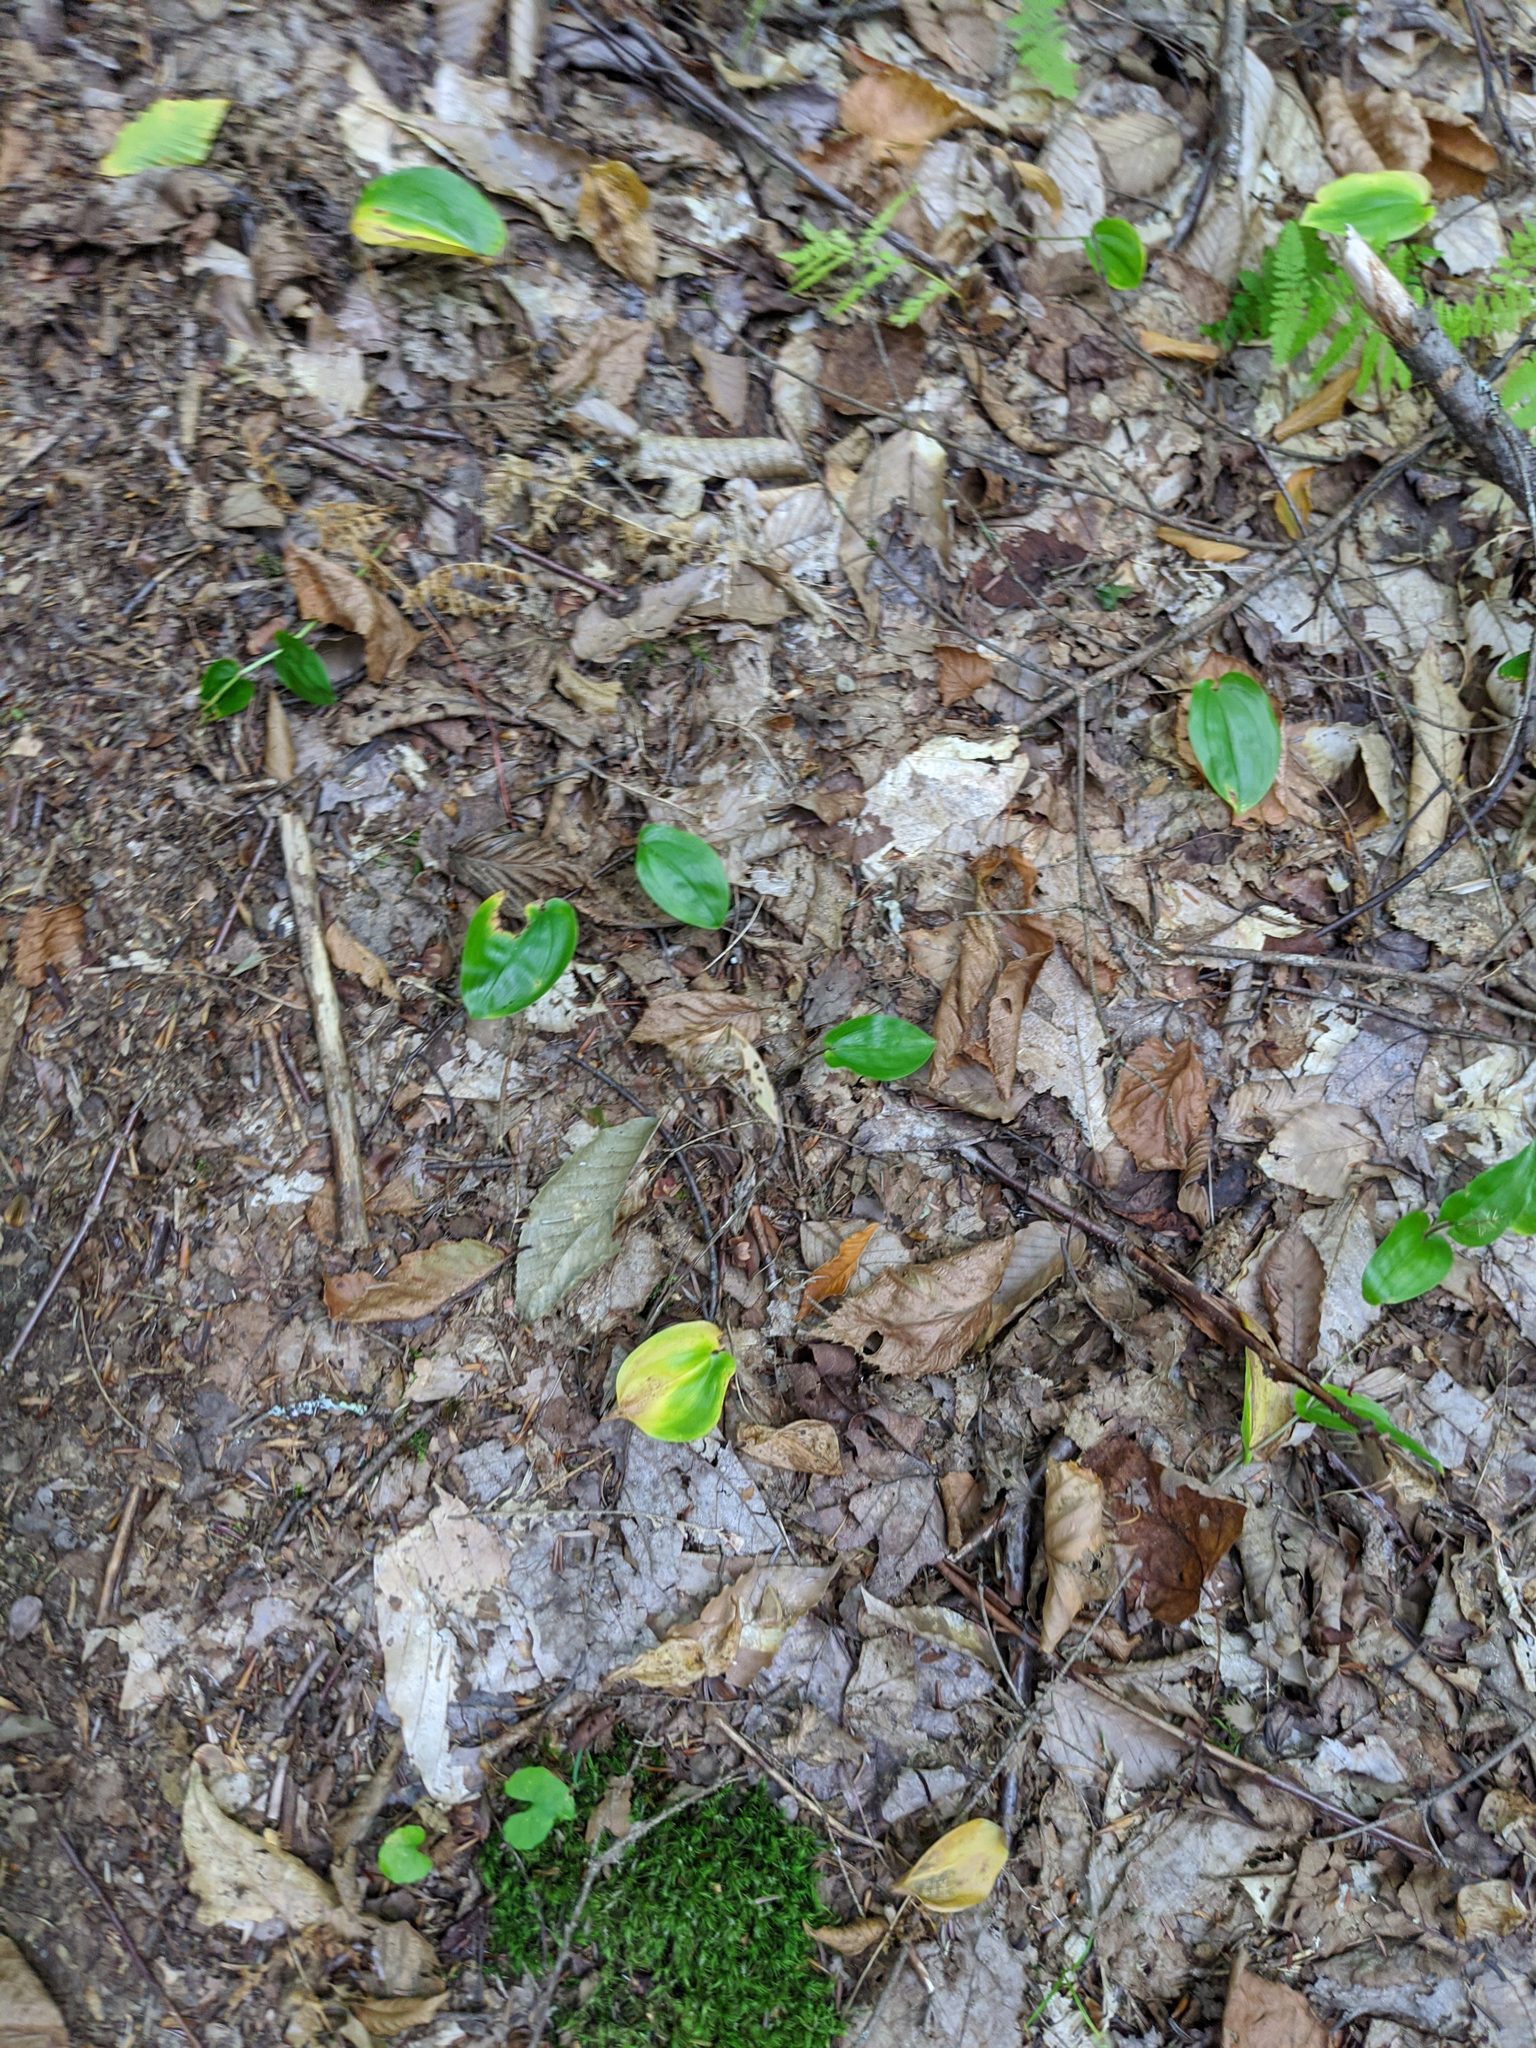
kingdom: Plantae
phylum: Tracheophyta
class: Liliopsida
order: Asparagales
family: Asparagaceae
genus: Maianthemum
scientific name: Maianthemum canadense
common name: False lily-of-the-valley
